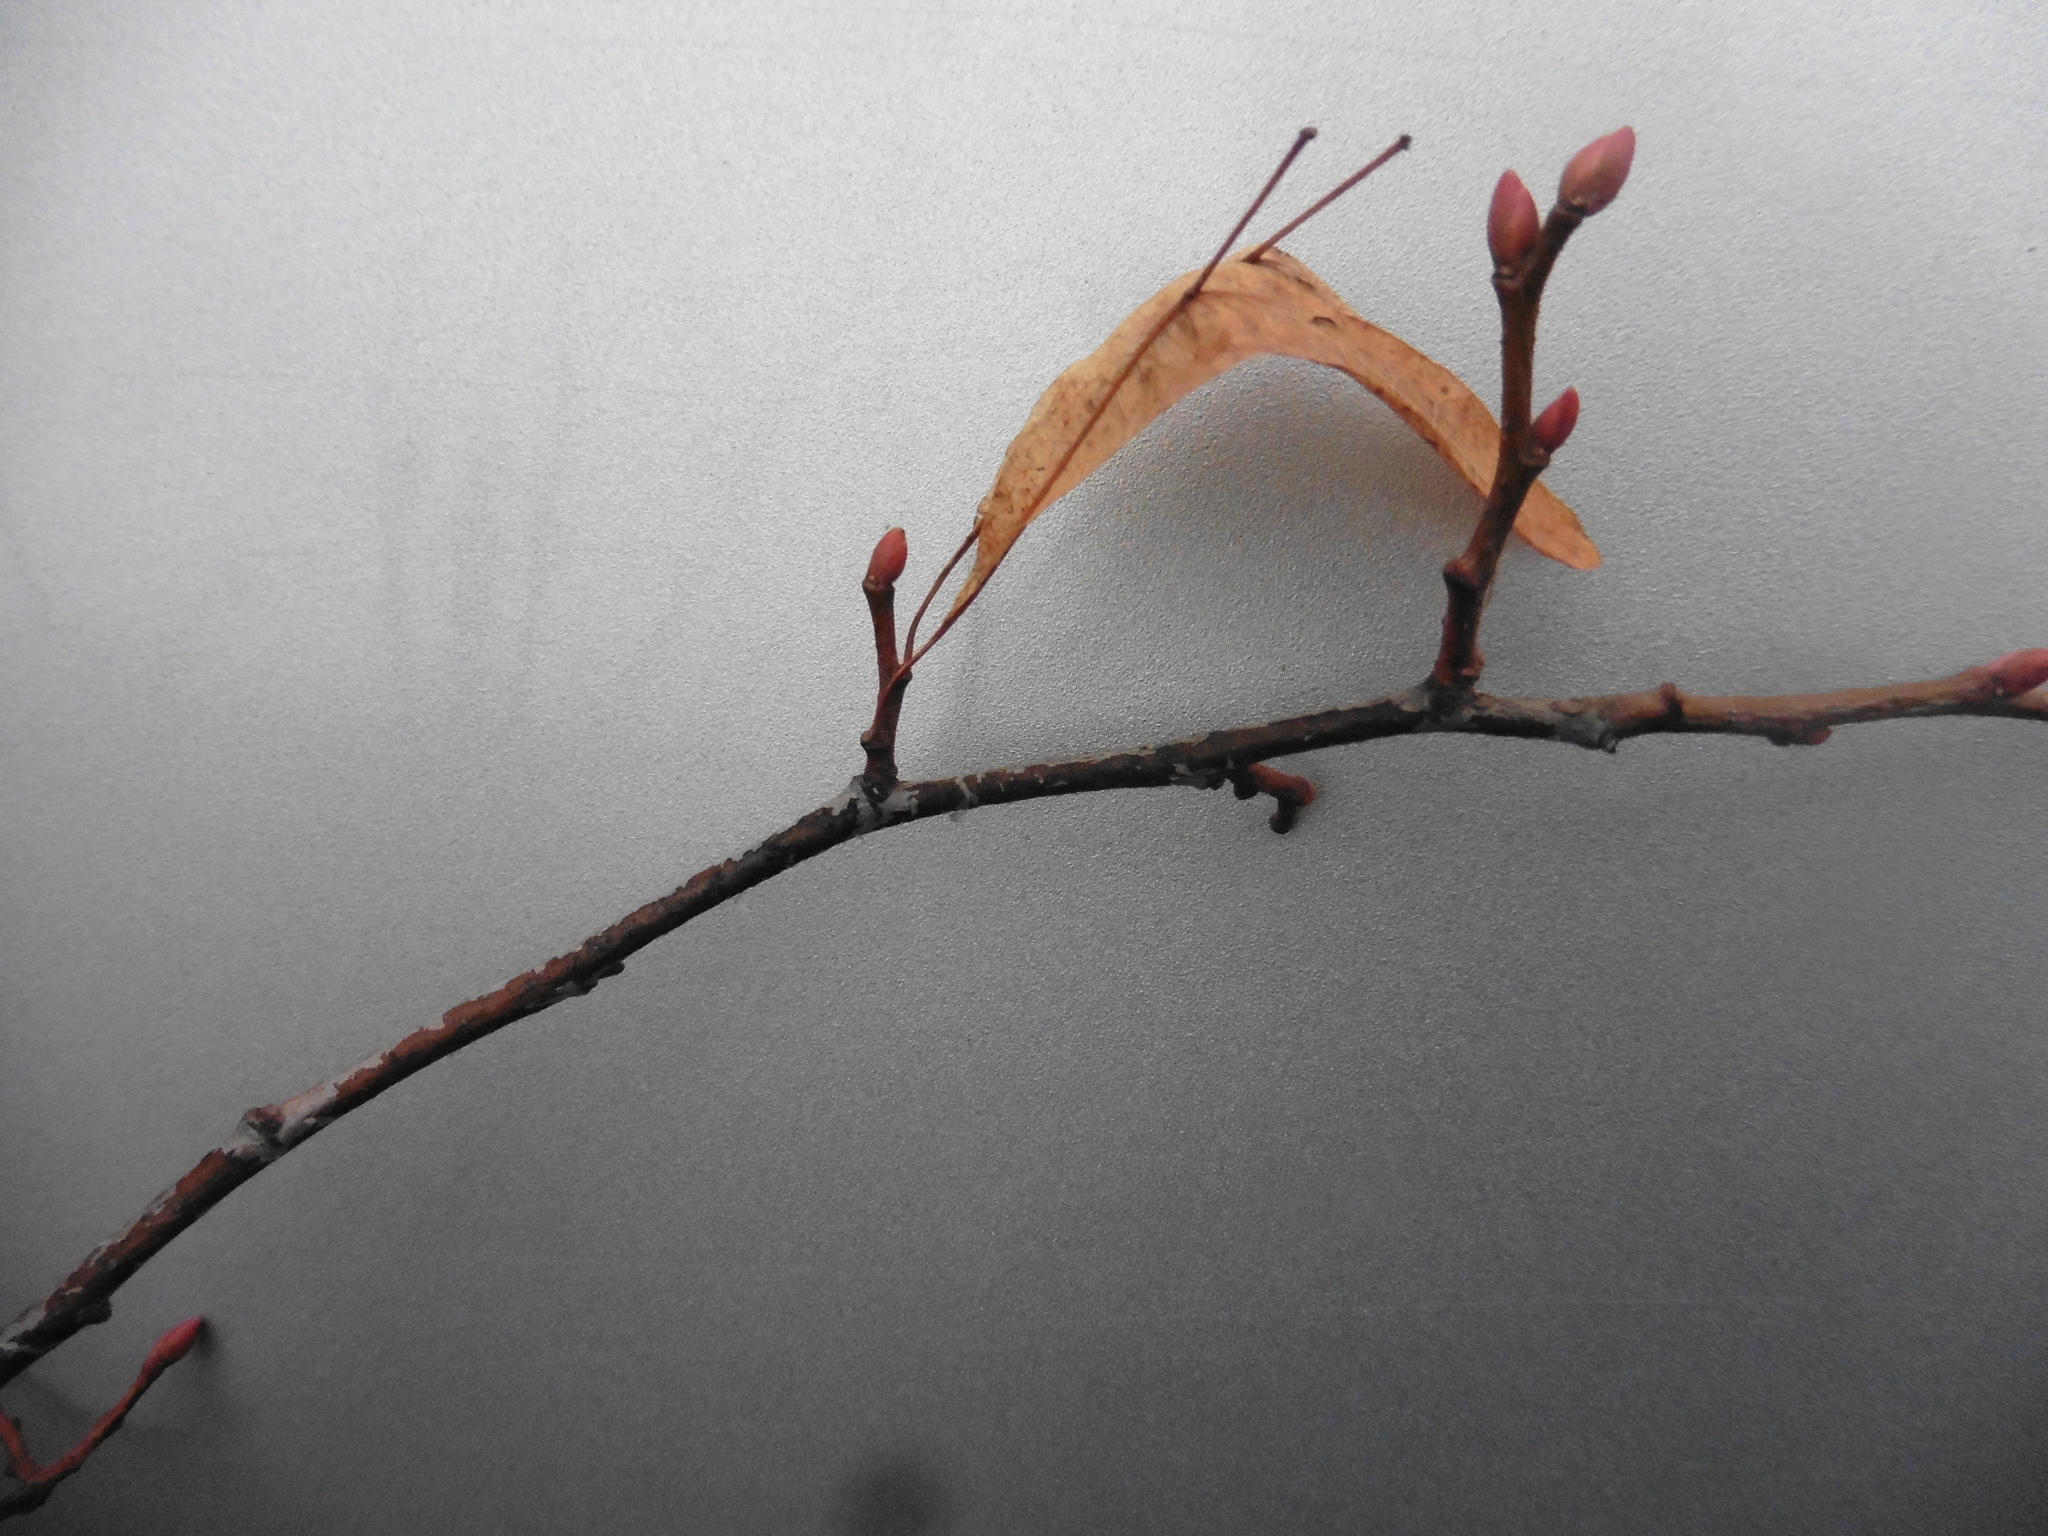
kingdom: Plantae
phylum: Tracheophyta
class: Magnoliopsida
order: Malvales
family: Malvaceae
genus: Tilia
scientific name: Tilia cordata
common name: Small-leaved lime
